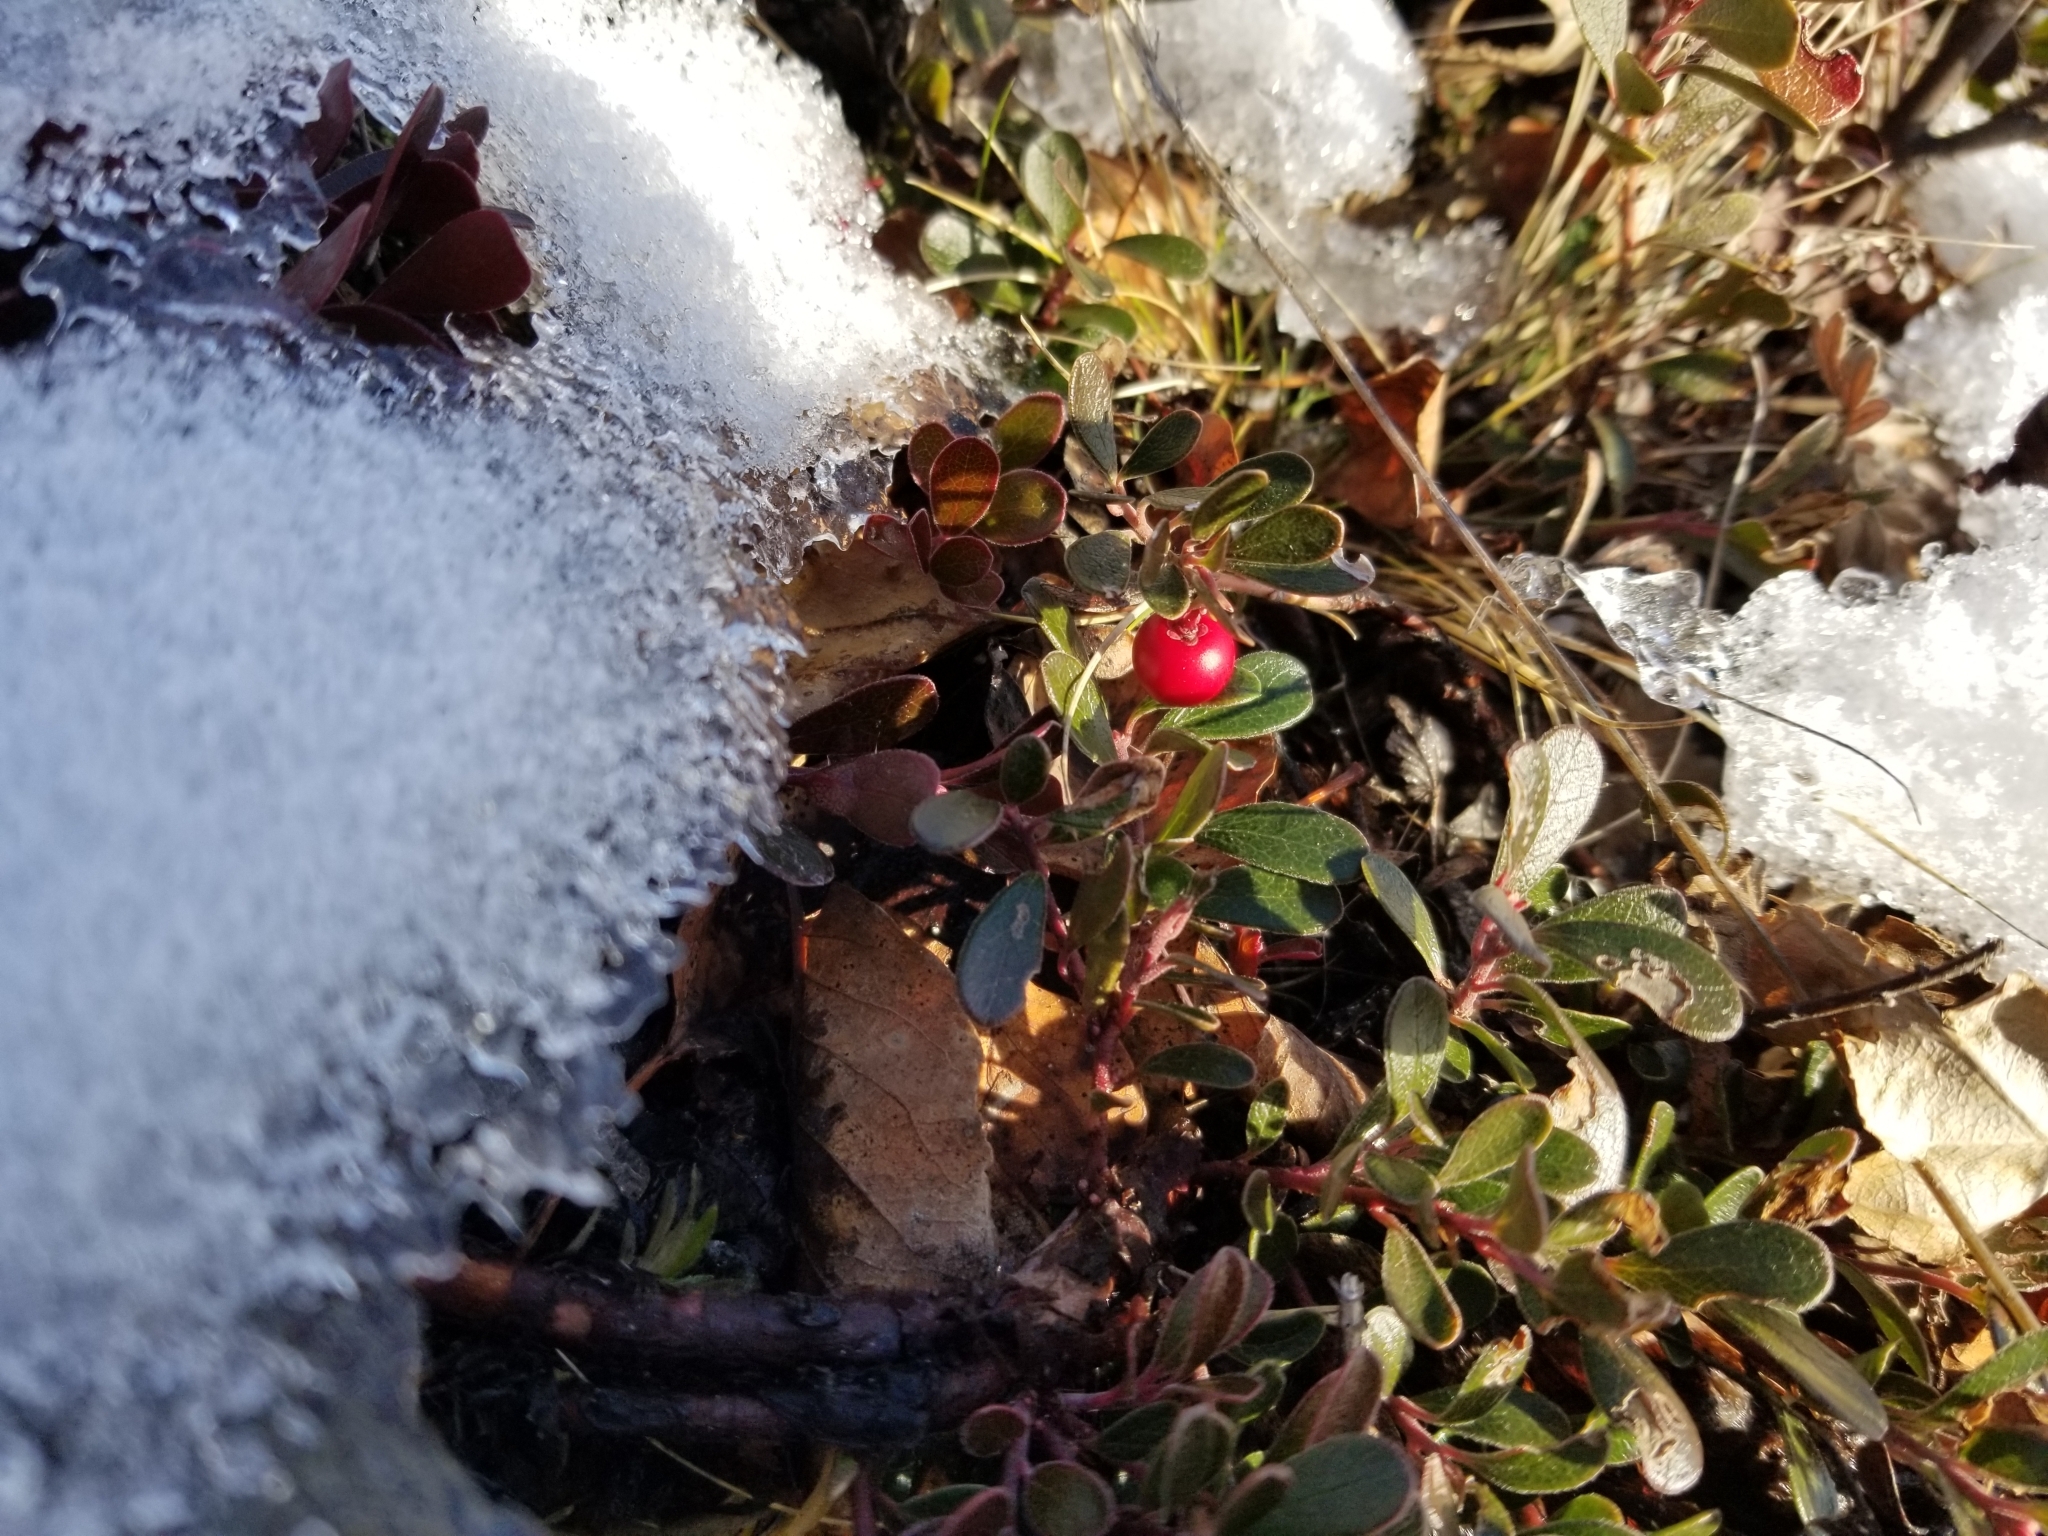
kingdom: Plantae
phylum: Tracheophyta
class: Magnoliopsida
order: Ericales
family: Ericaceae
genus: Arctostaphylos
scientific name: Arctostaphylos uva-ursi
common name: Bearberry
